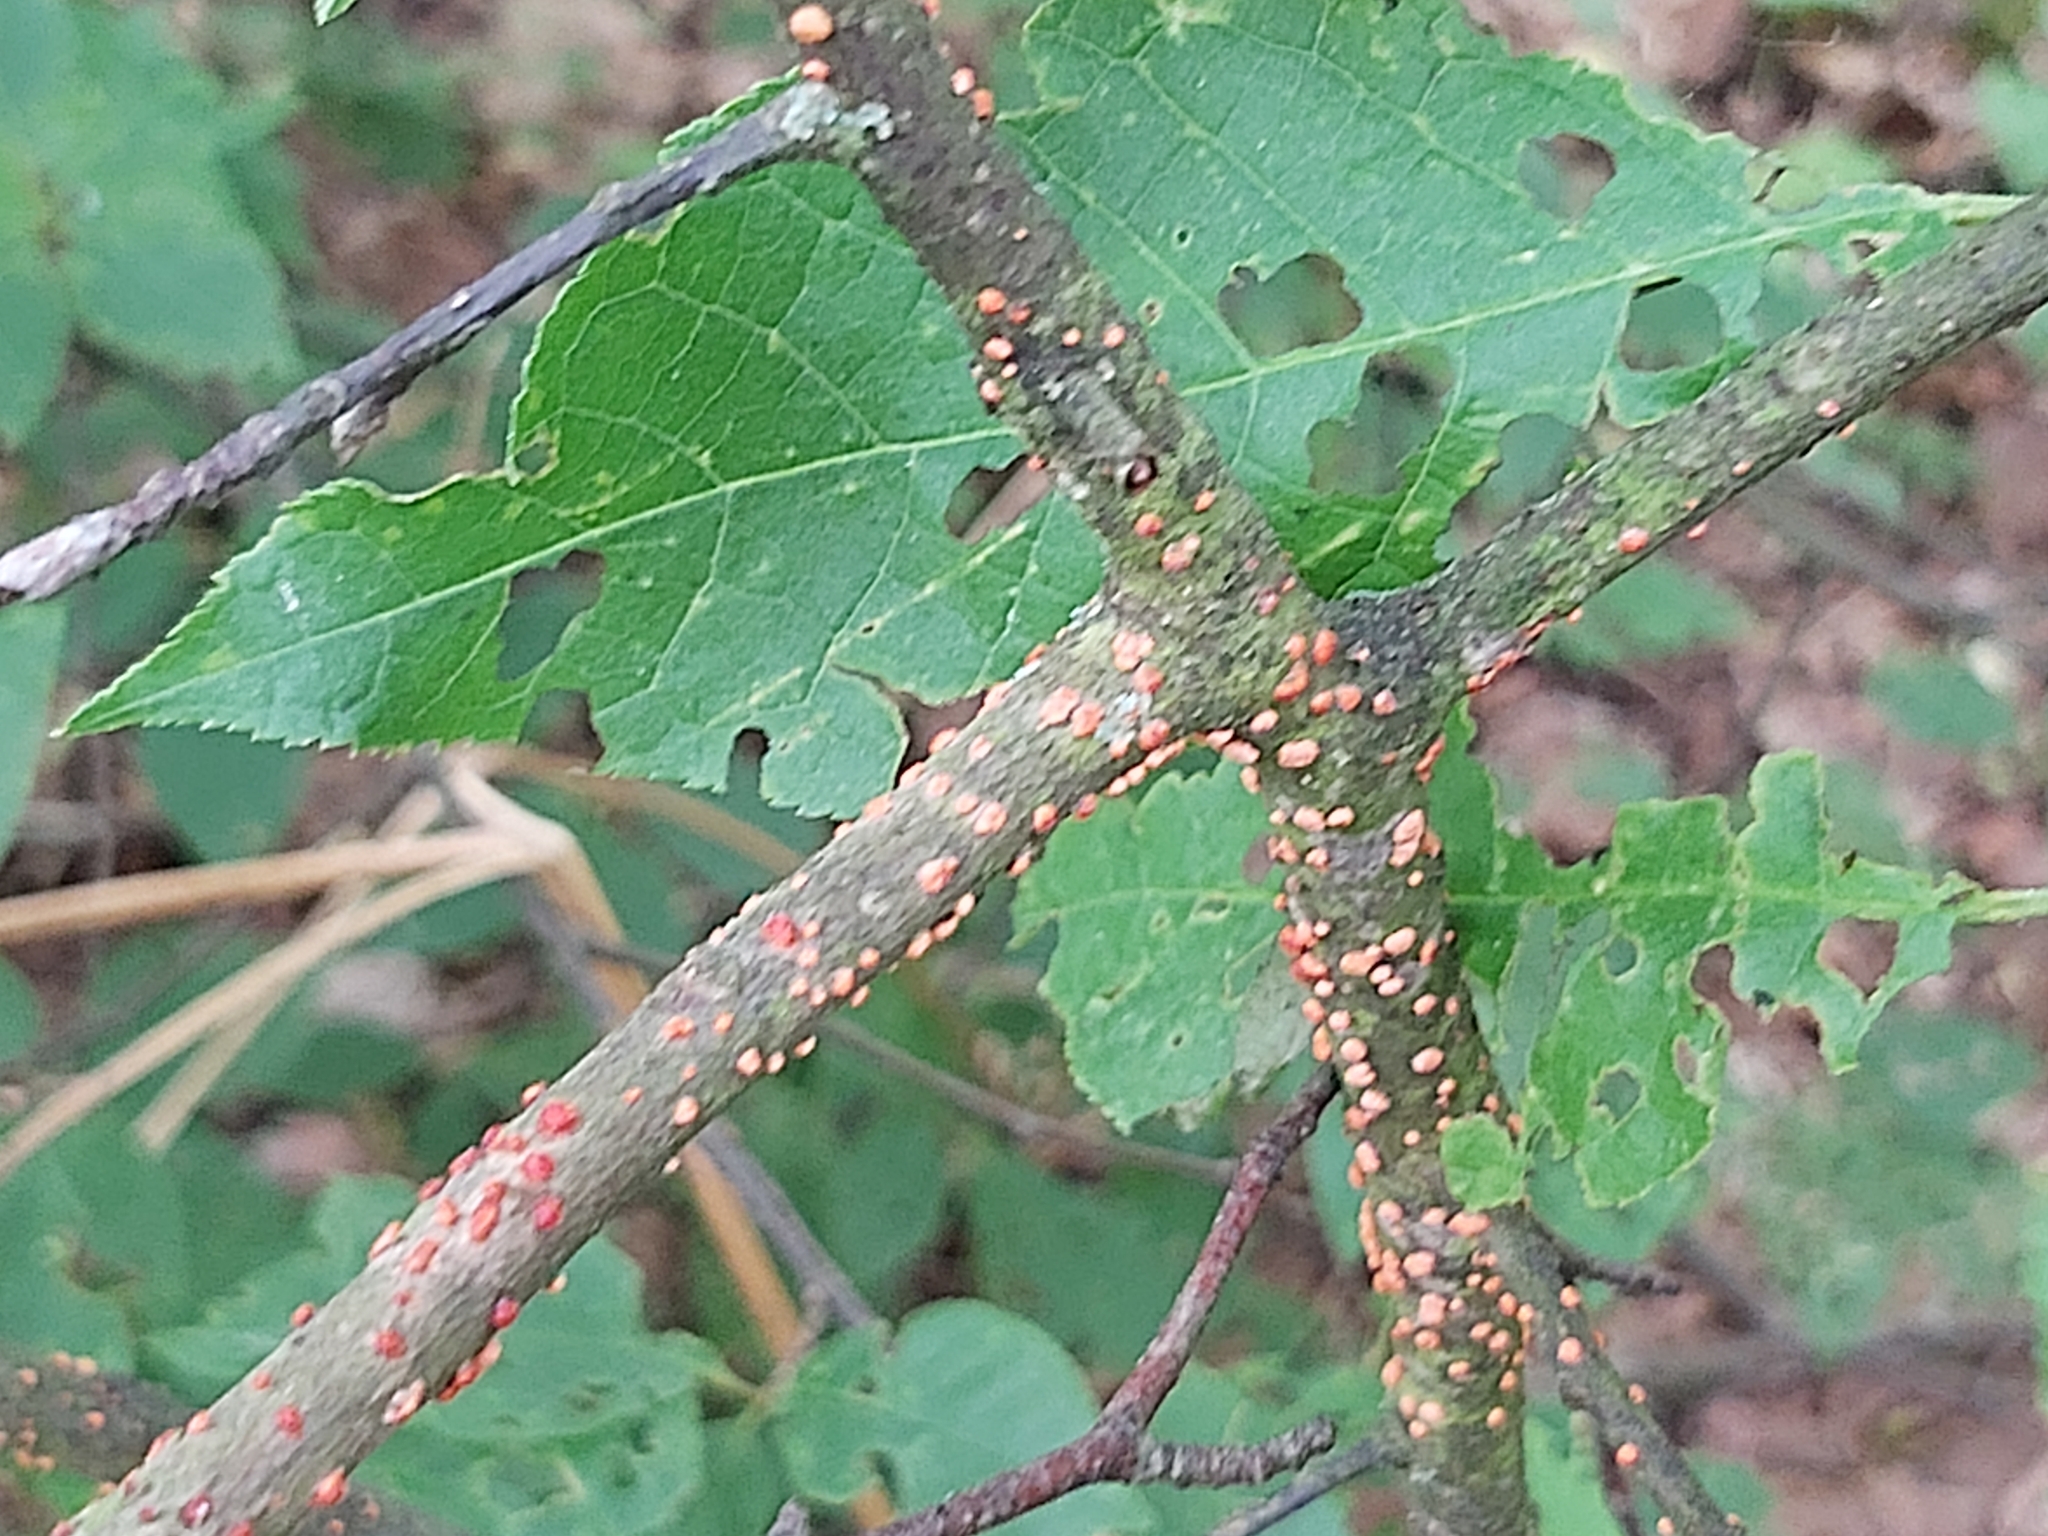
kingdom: Fungi
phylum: Ascomycota
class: Sordariomycetes
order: Hypocreales
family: Nectriaceae
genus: Nectria
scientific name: Nectria cinnabarina
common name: Coral spot
